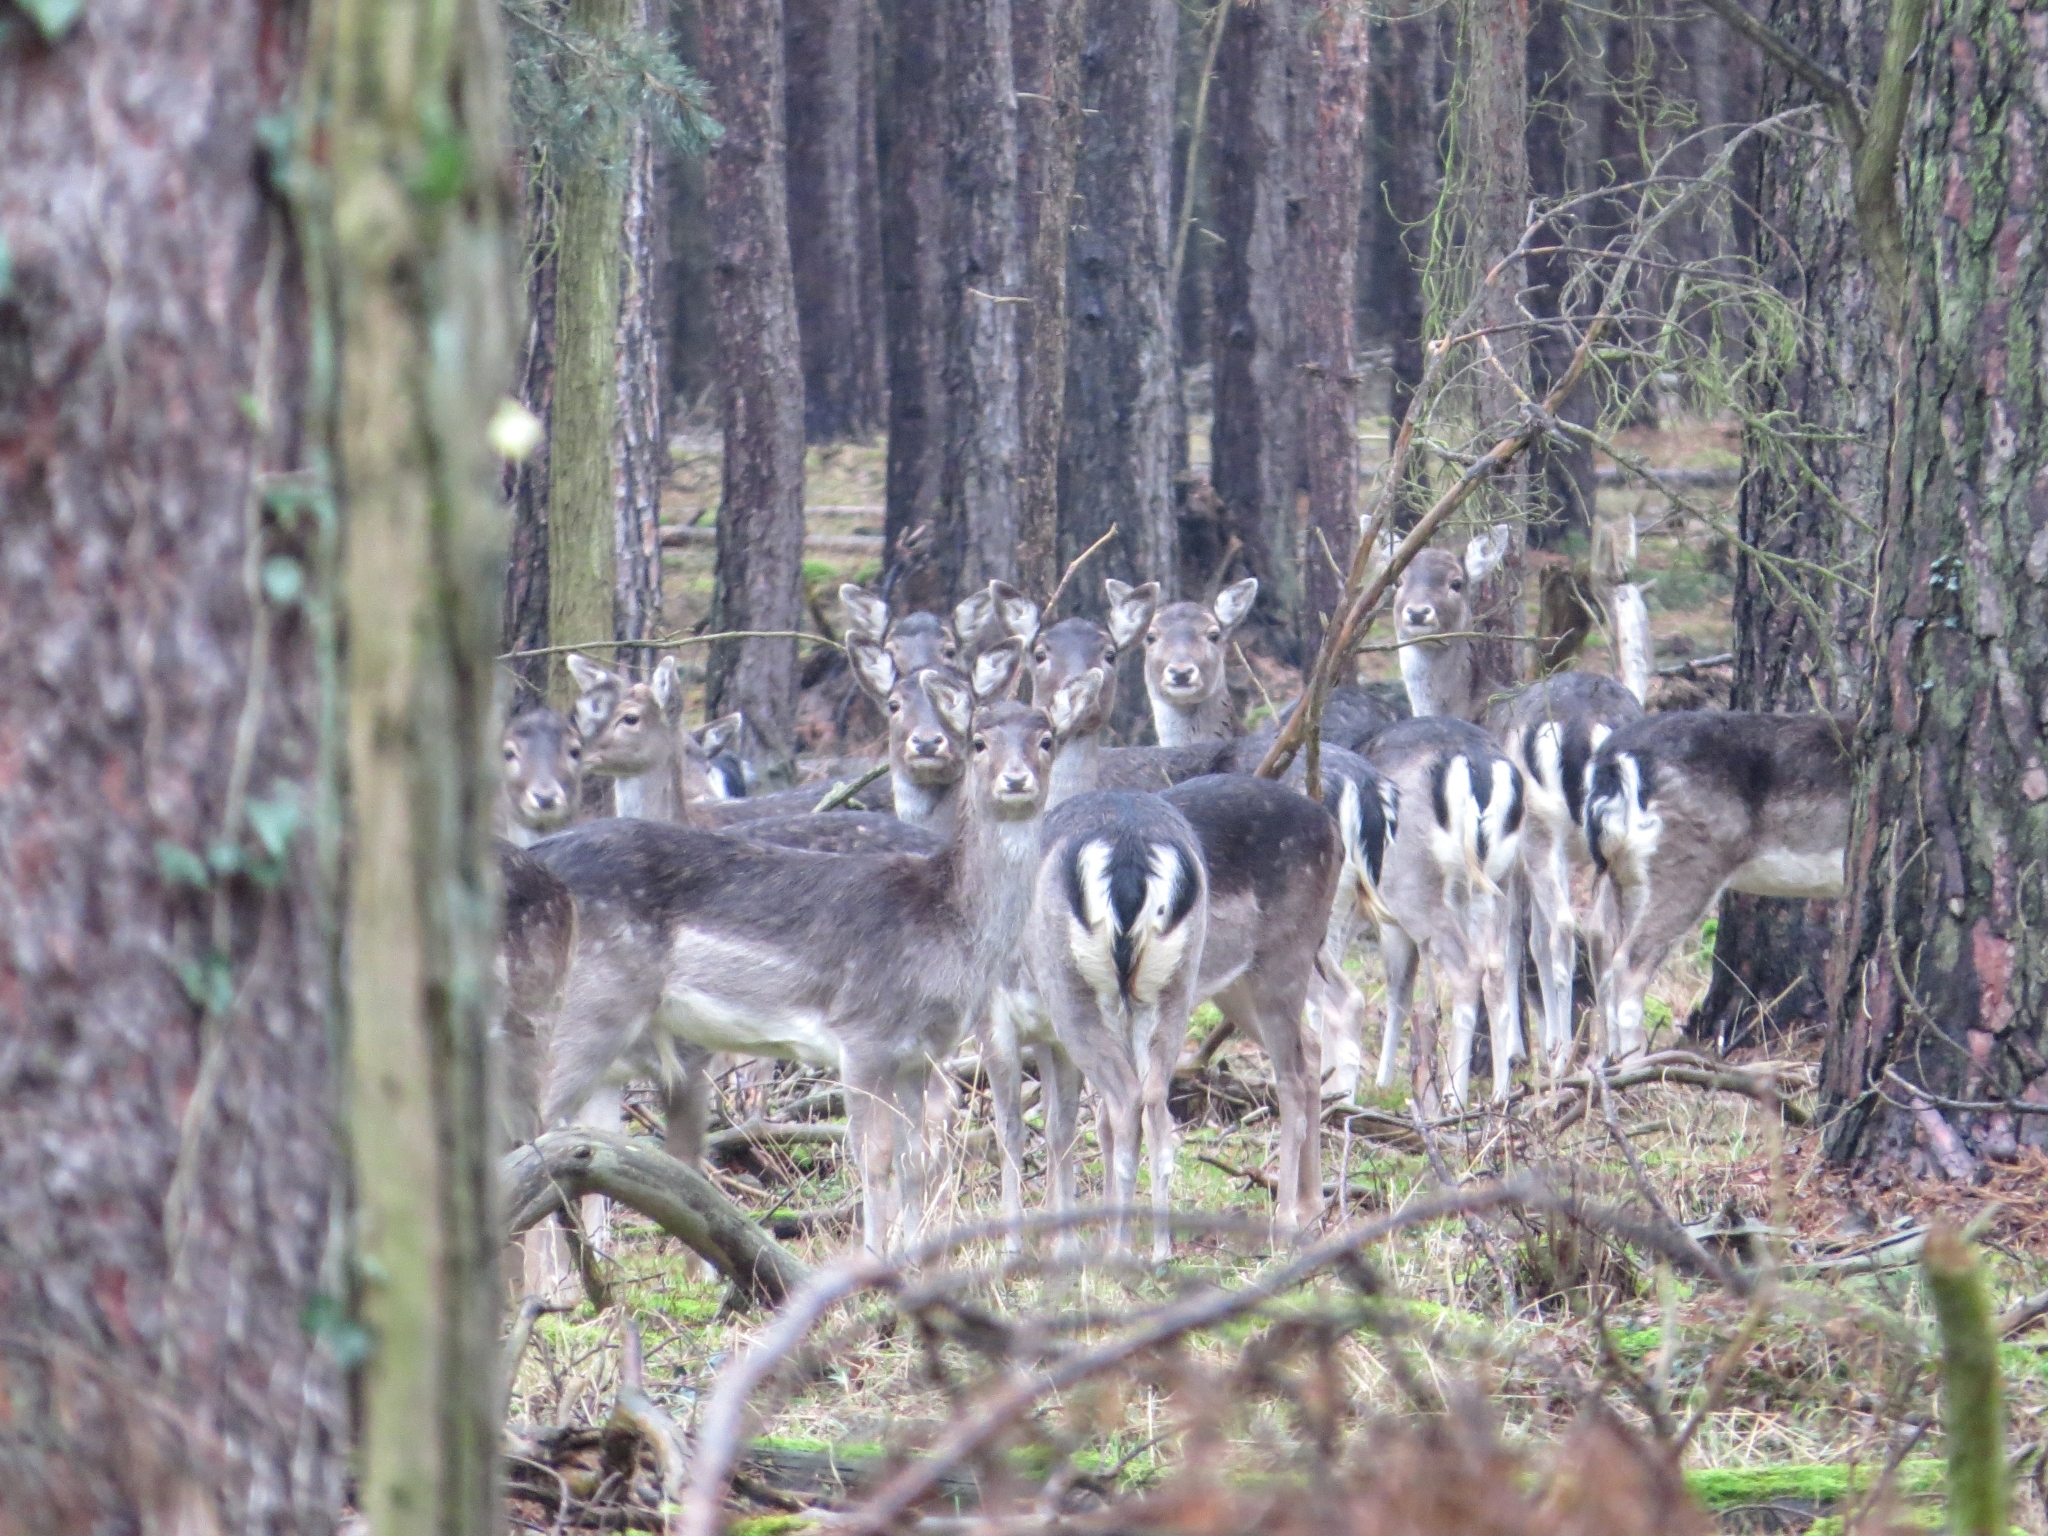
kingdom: Animalia
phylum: Chordata
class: Mammalia
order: Artiodactyla
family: Cervidae
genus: Dama
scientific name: Dama dama
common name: Fallow deer
